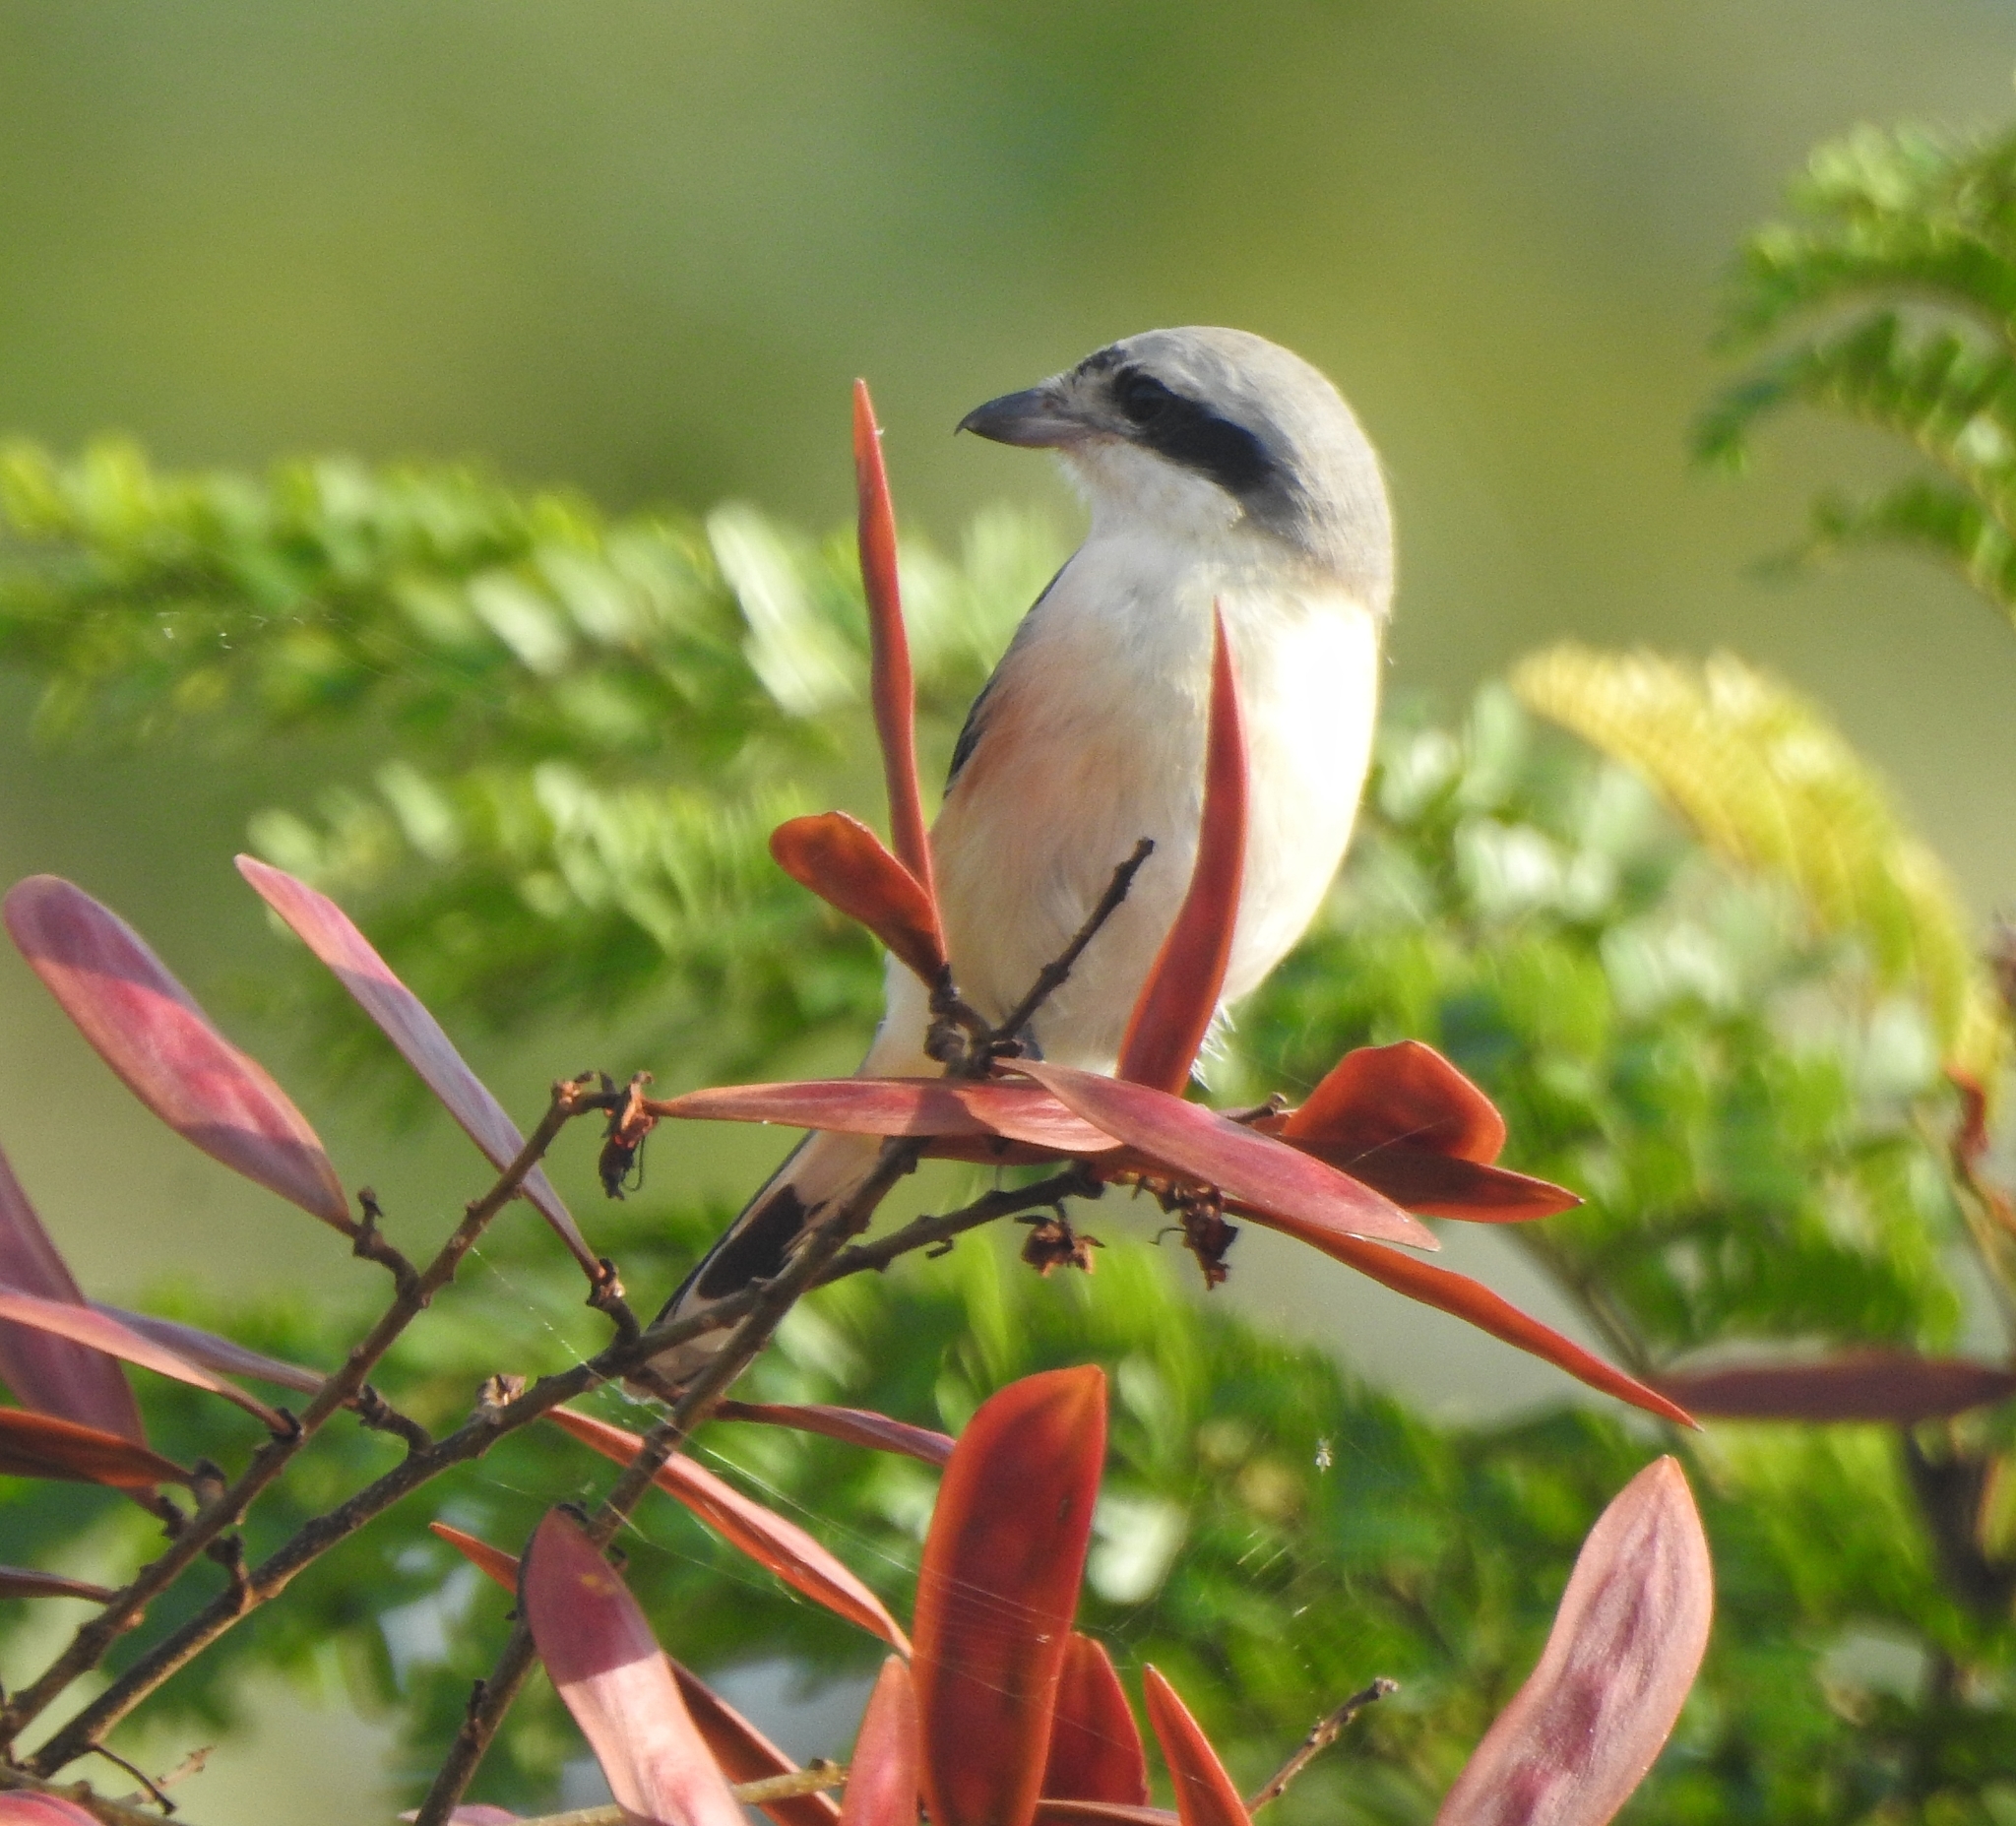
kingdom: Animalia
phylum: Chordata
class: Aves
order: Passeriformes
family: Laniidae
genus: Lanius
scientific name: Lanius schach
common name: Long-tailed shrike
